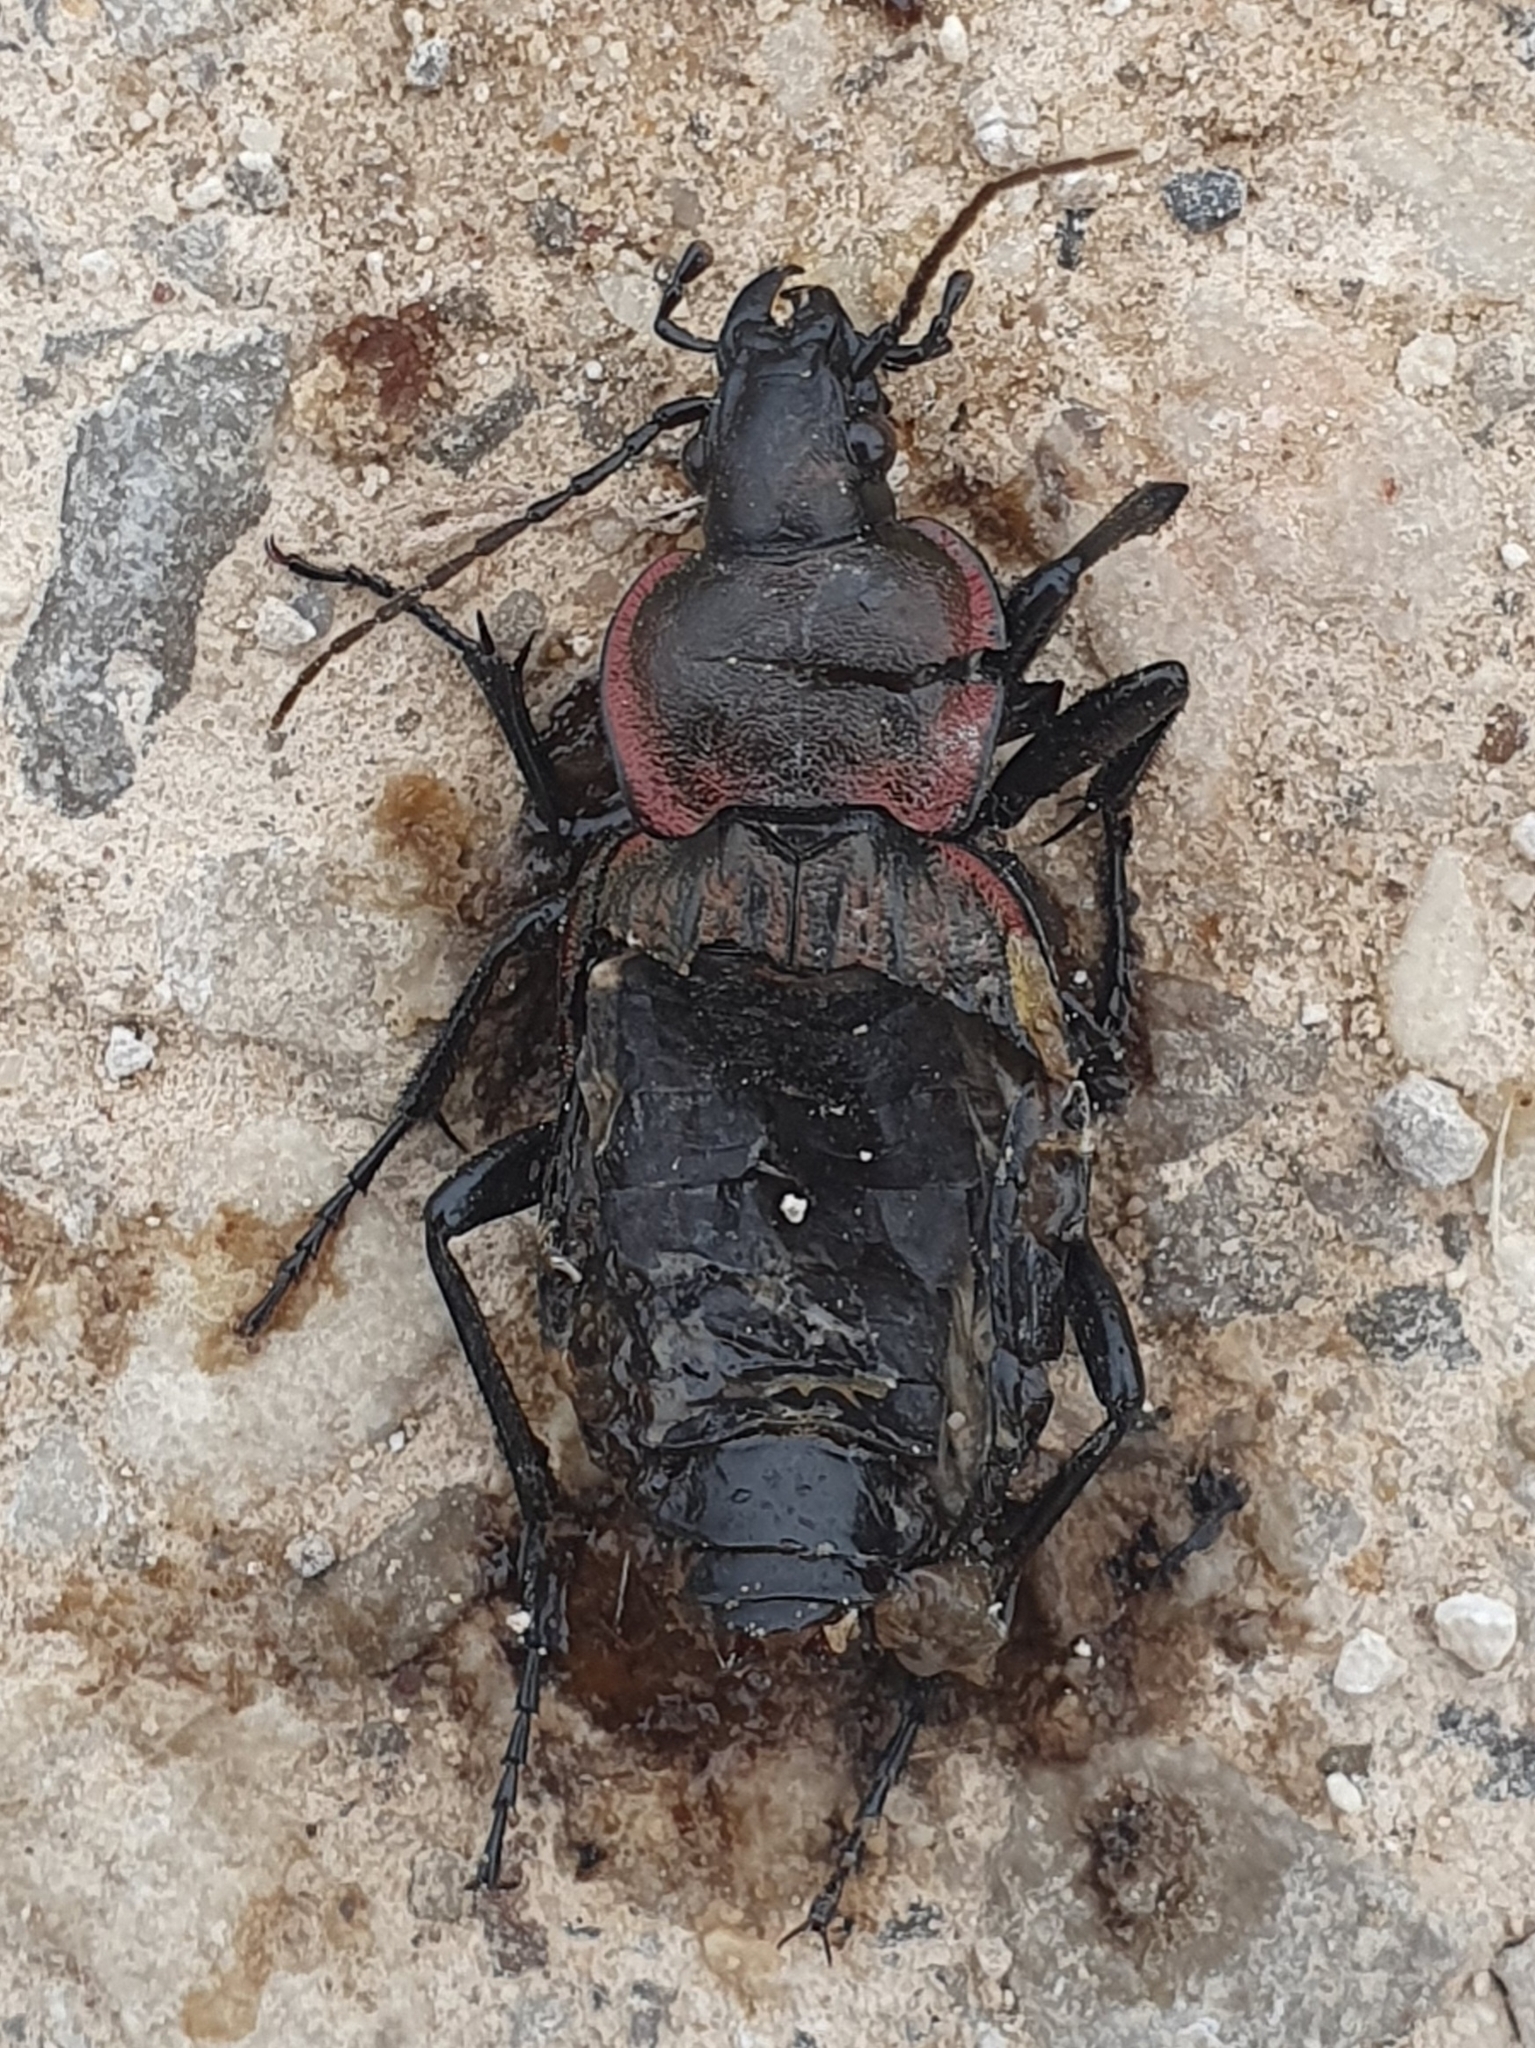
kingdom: Animalia
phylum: Arthropoda
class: Insecta
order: Coleoptera
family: Carabidae
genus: Carabus
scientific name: Carabus faminii
